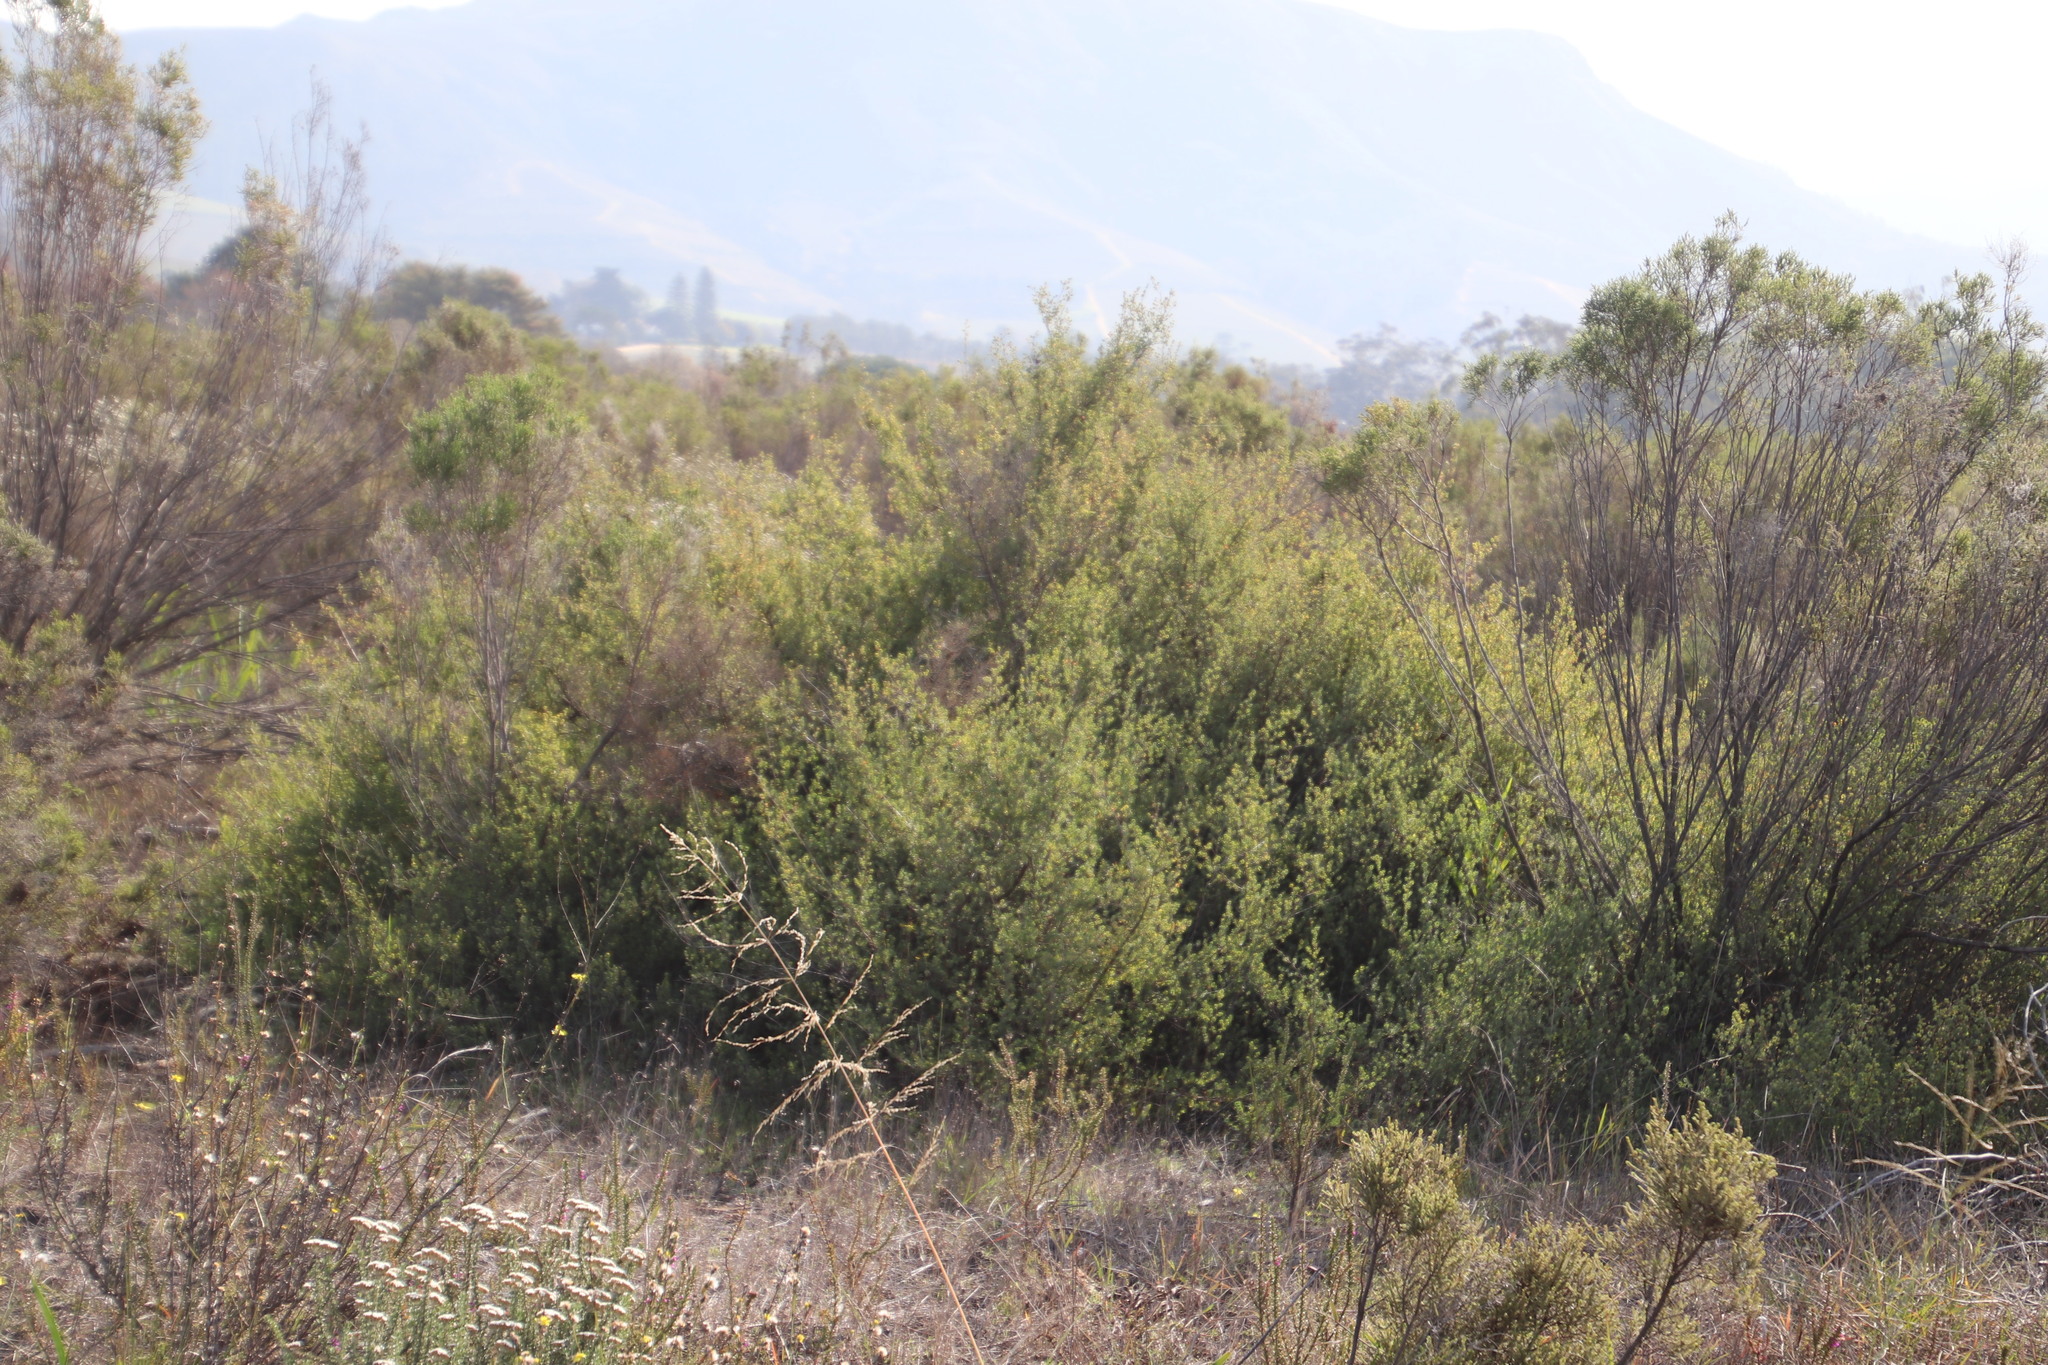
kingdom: Plantae
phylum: Tracheophyta
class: Magnoliopsida
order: Rosales
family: Rosaceae
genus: Cliffortia
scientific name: Cliffortia obcordata
